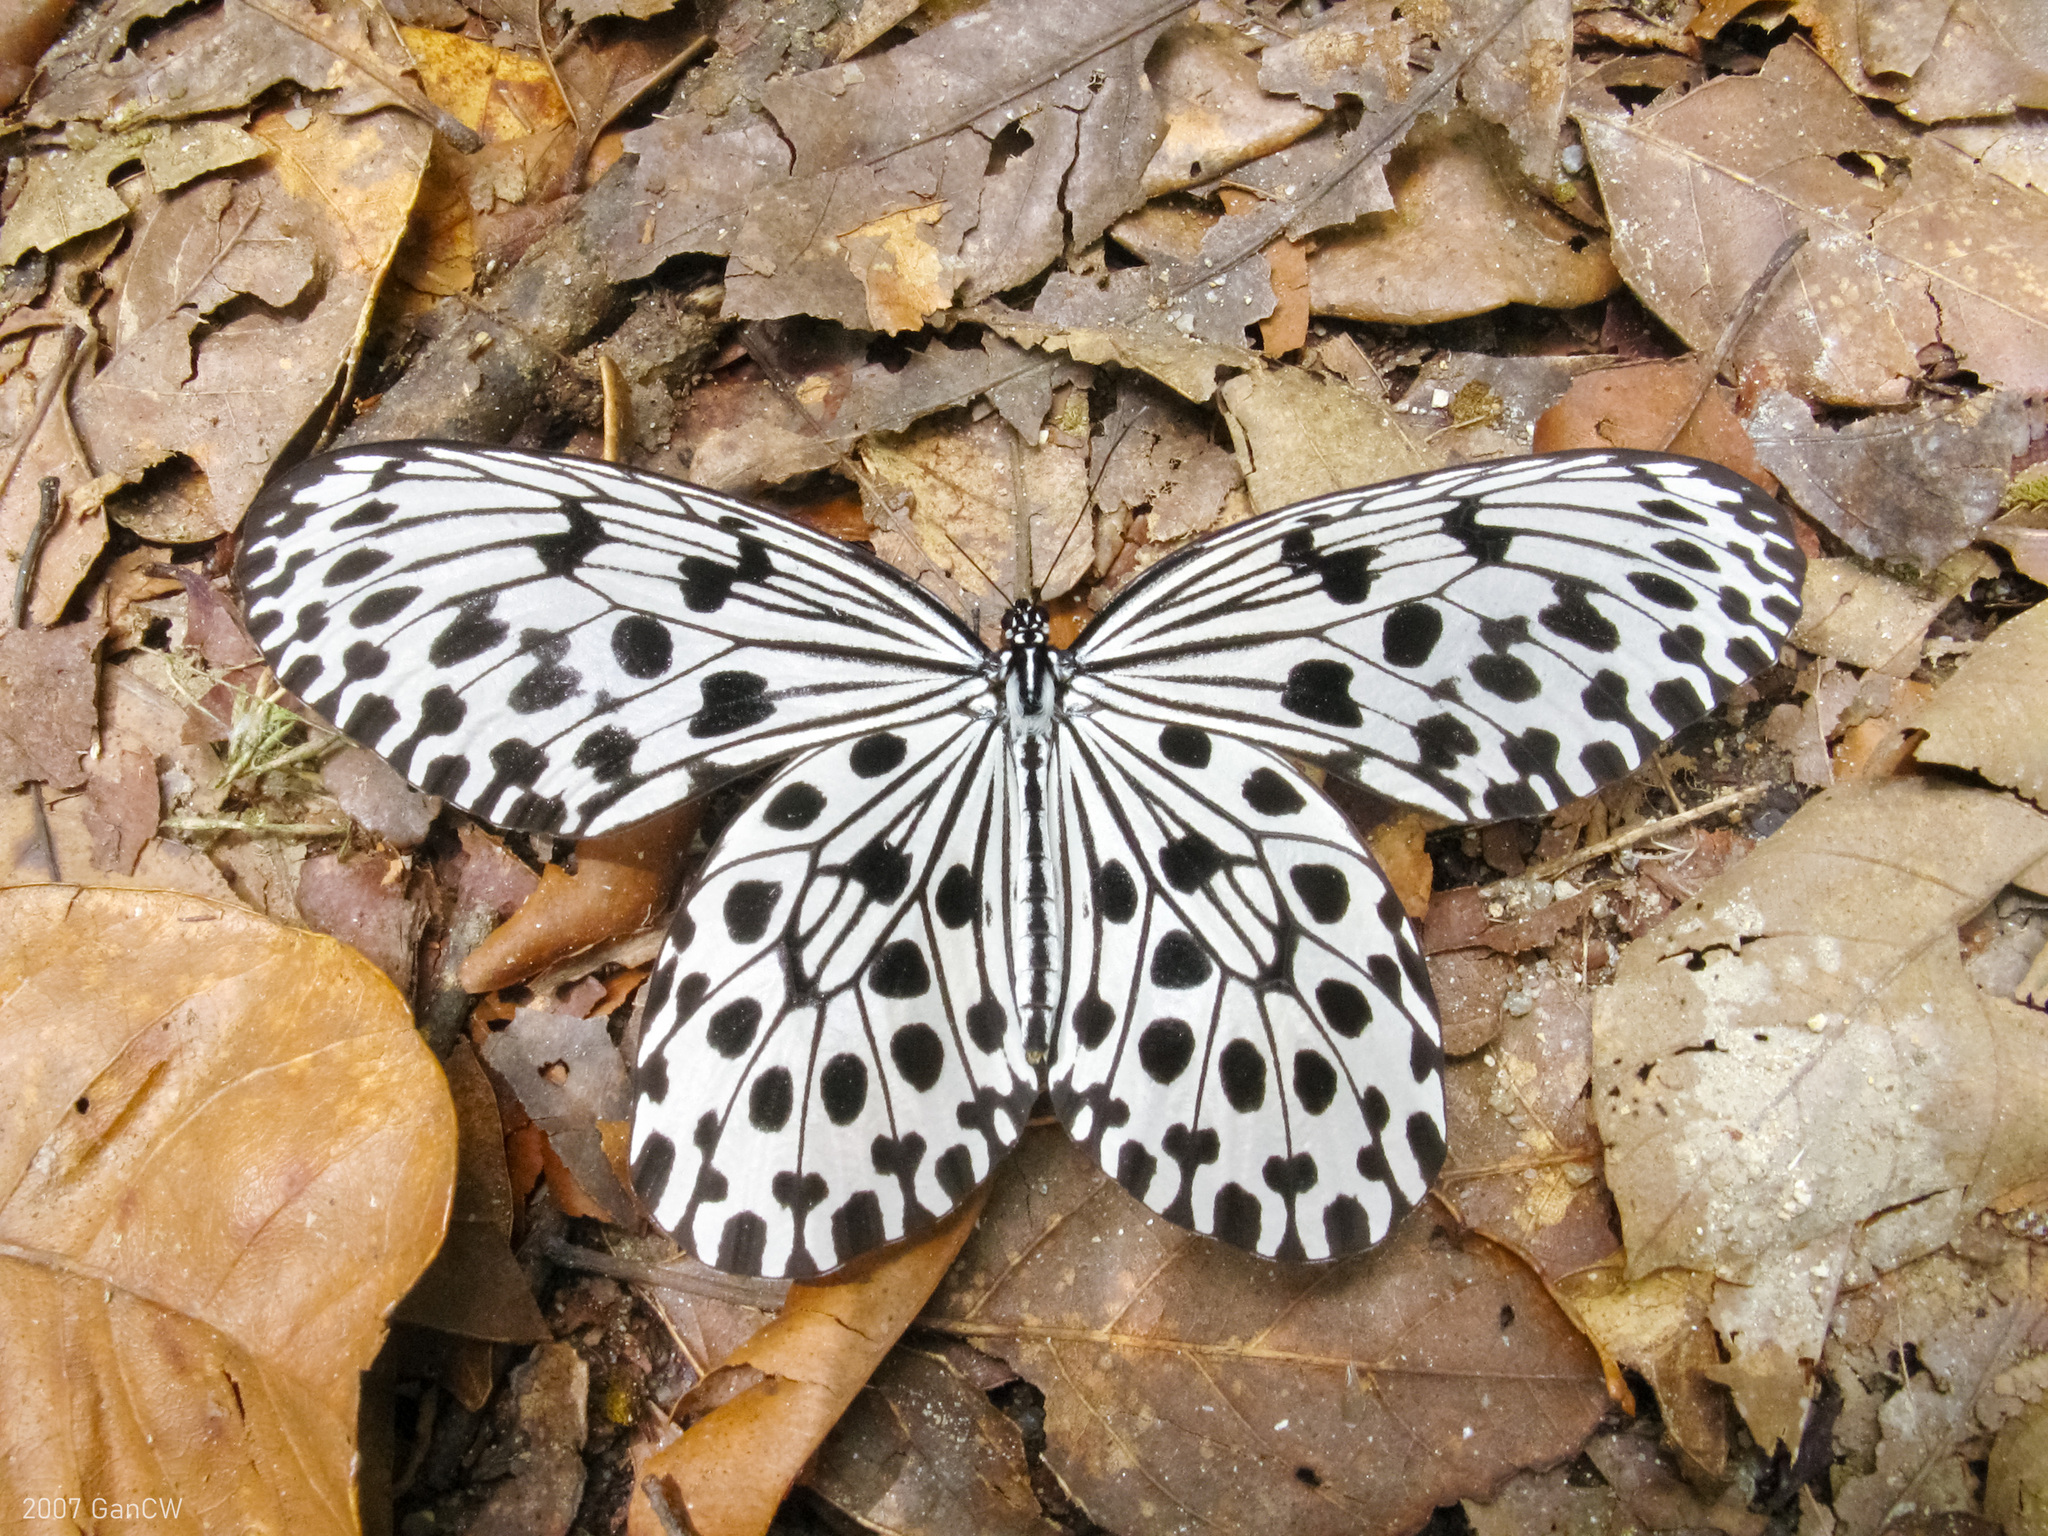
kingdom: Animalia
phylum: Arthropoda
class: Insecta
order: Lepidoptera
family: Nymphalidae
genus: Idea
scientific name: Idea hypermnestra
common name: Malayan tree nymph
